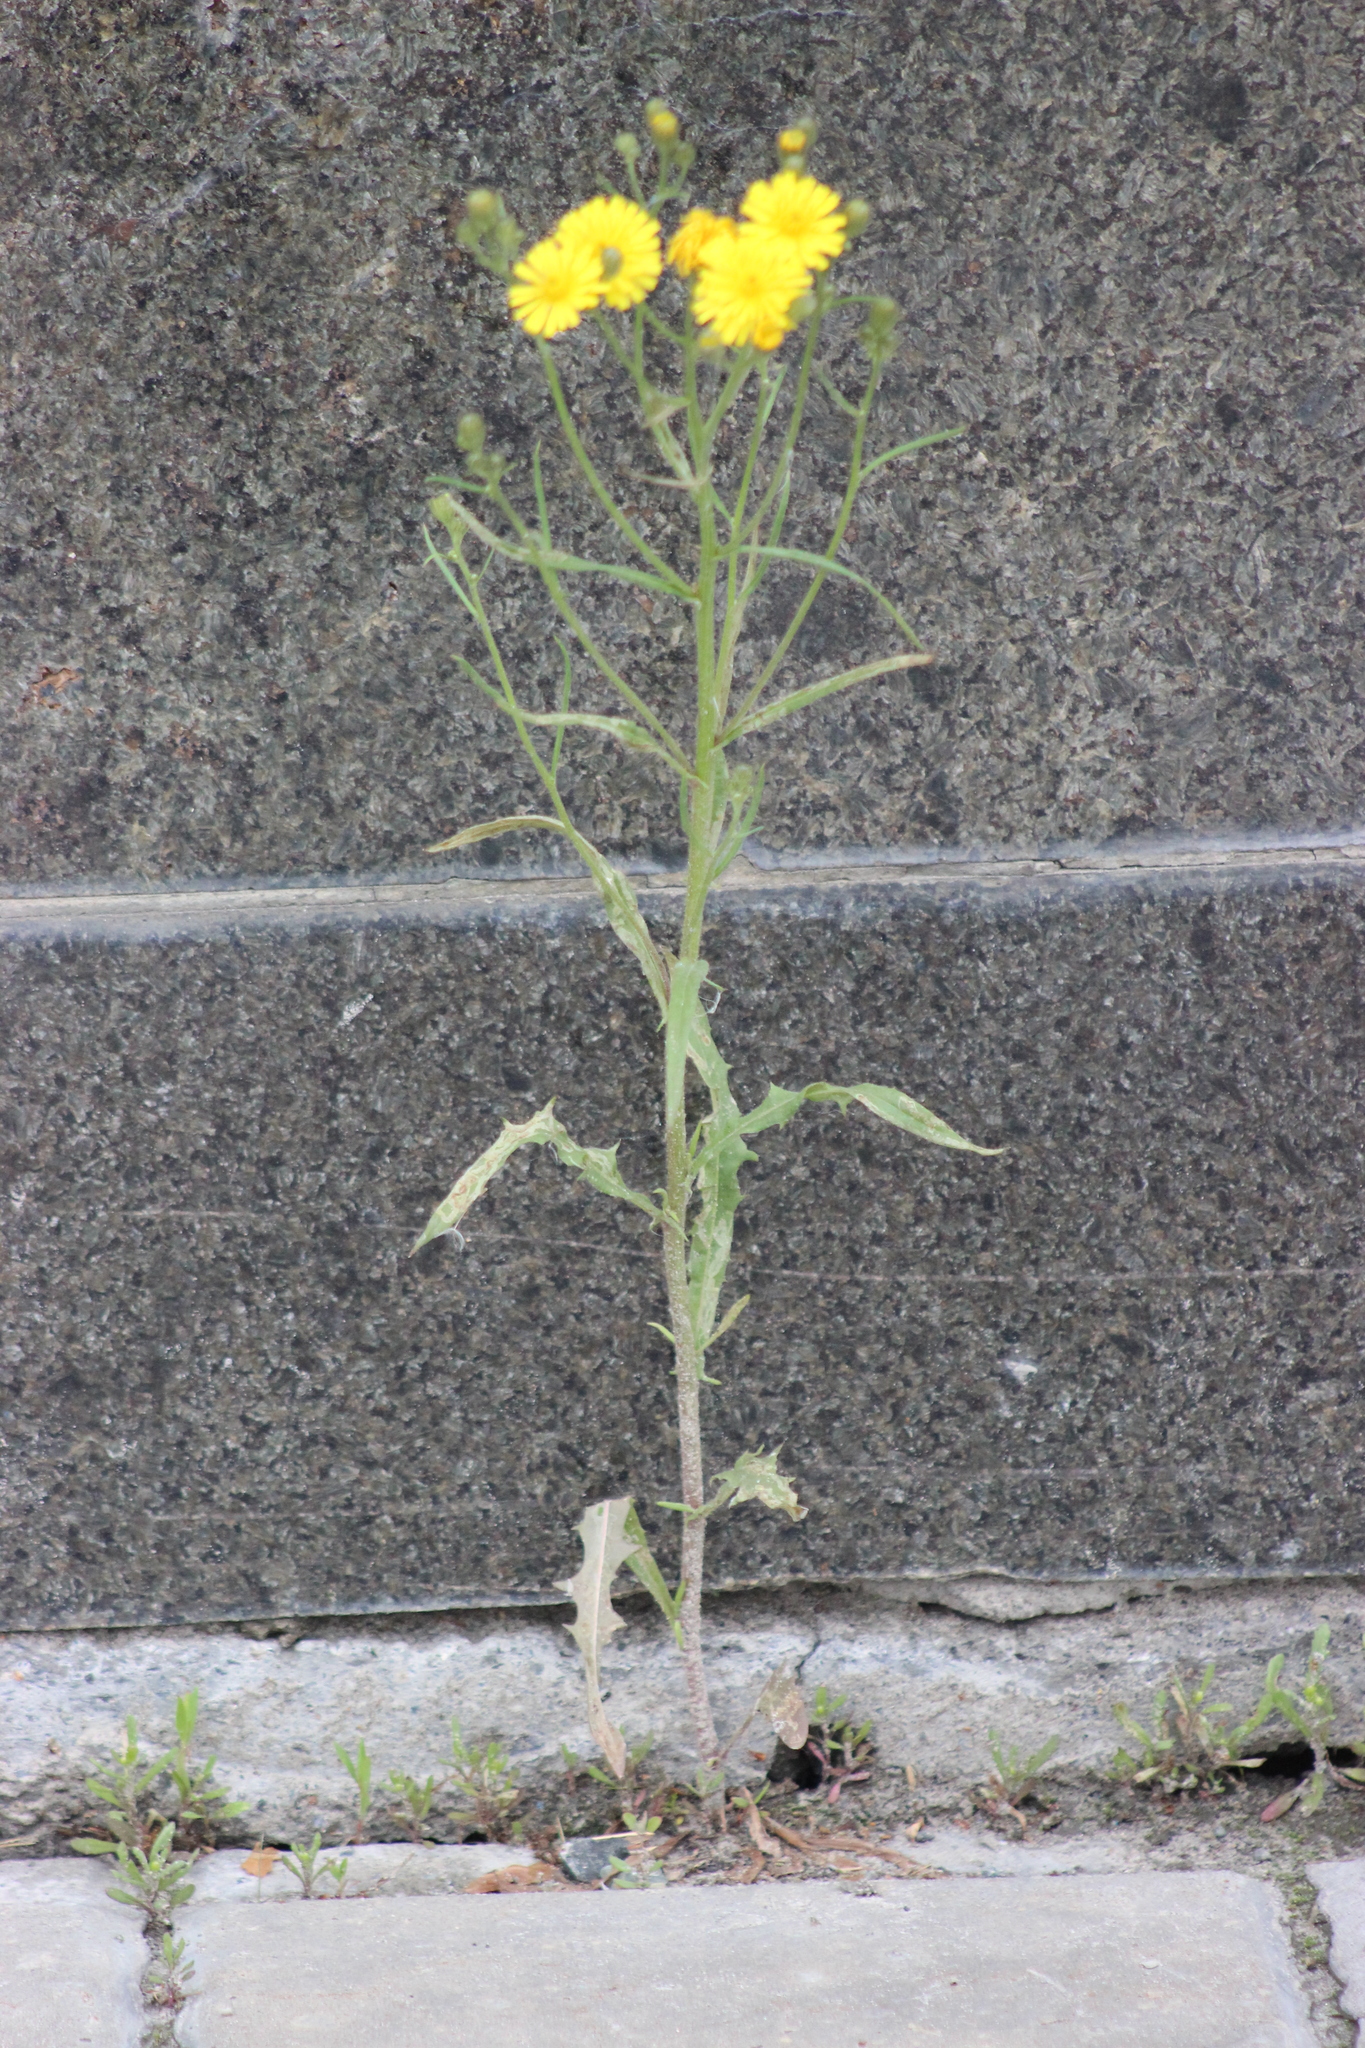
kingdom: Plantae
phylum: Tracheophyta
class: Magnoliopsida
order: Asterales
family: Asteraceae
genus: Crepis
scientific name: Crepis tectorum
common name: Narrow-leaved hawk's-beard
